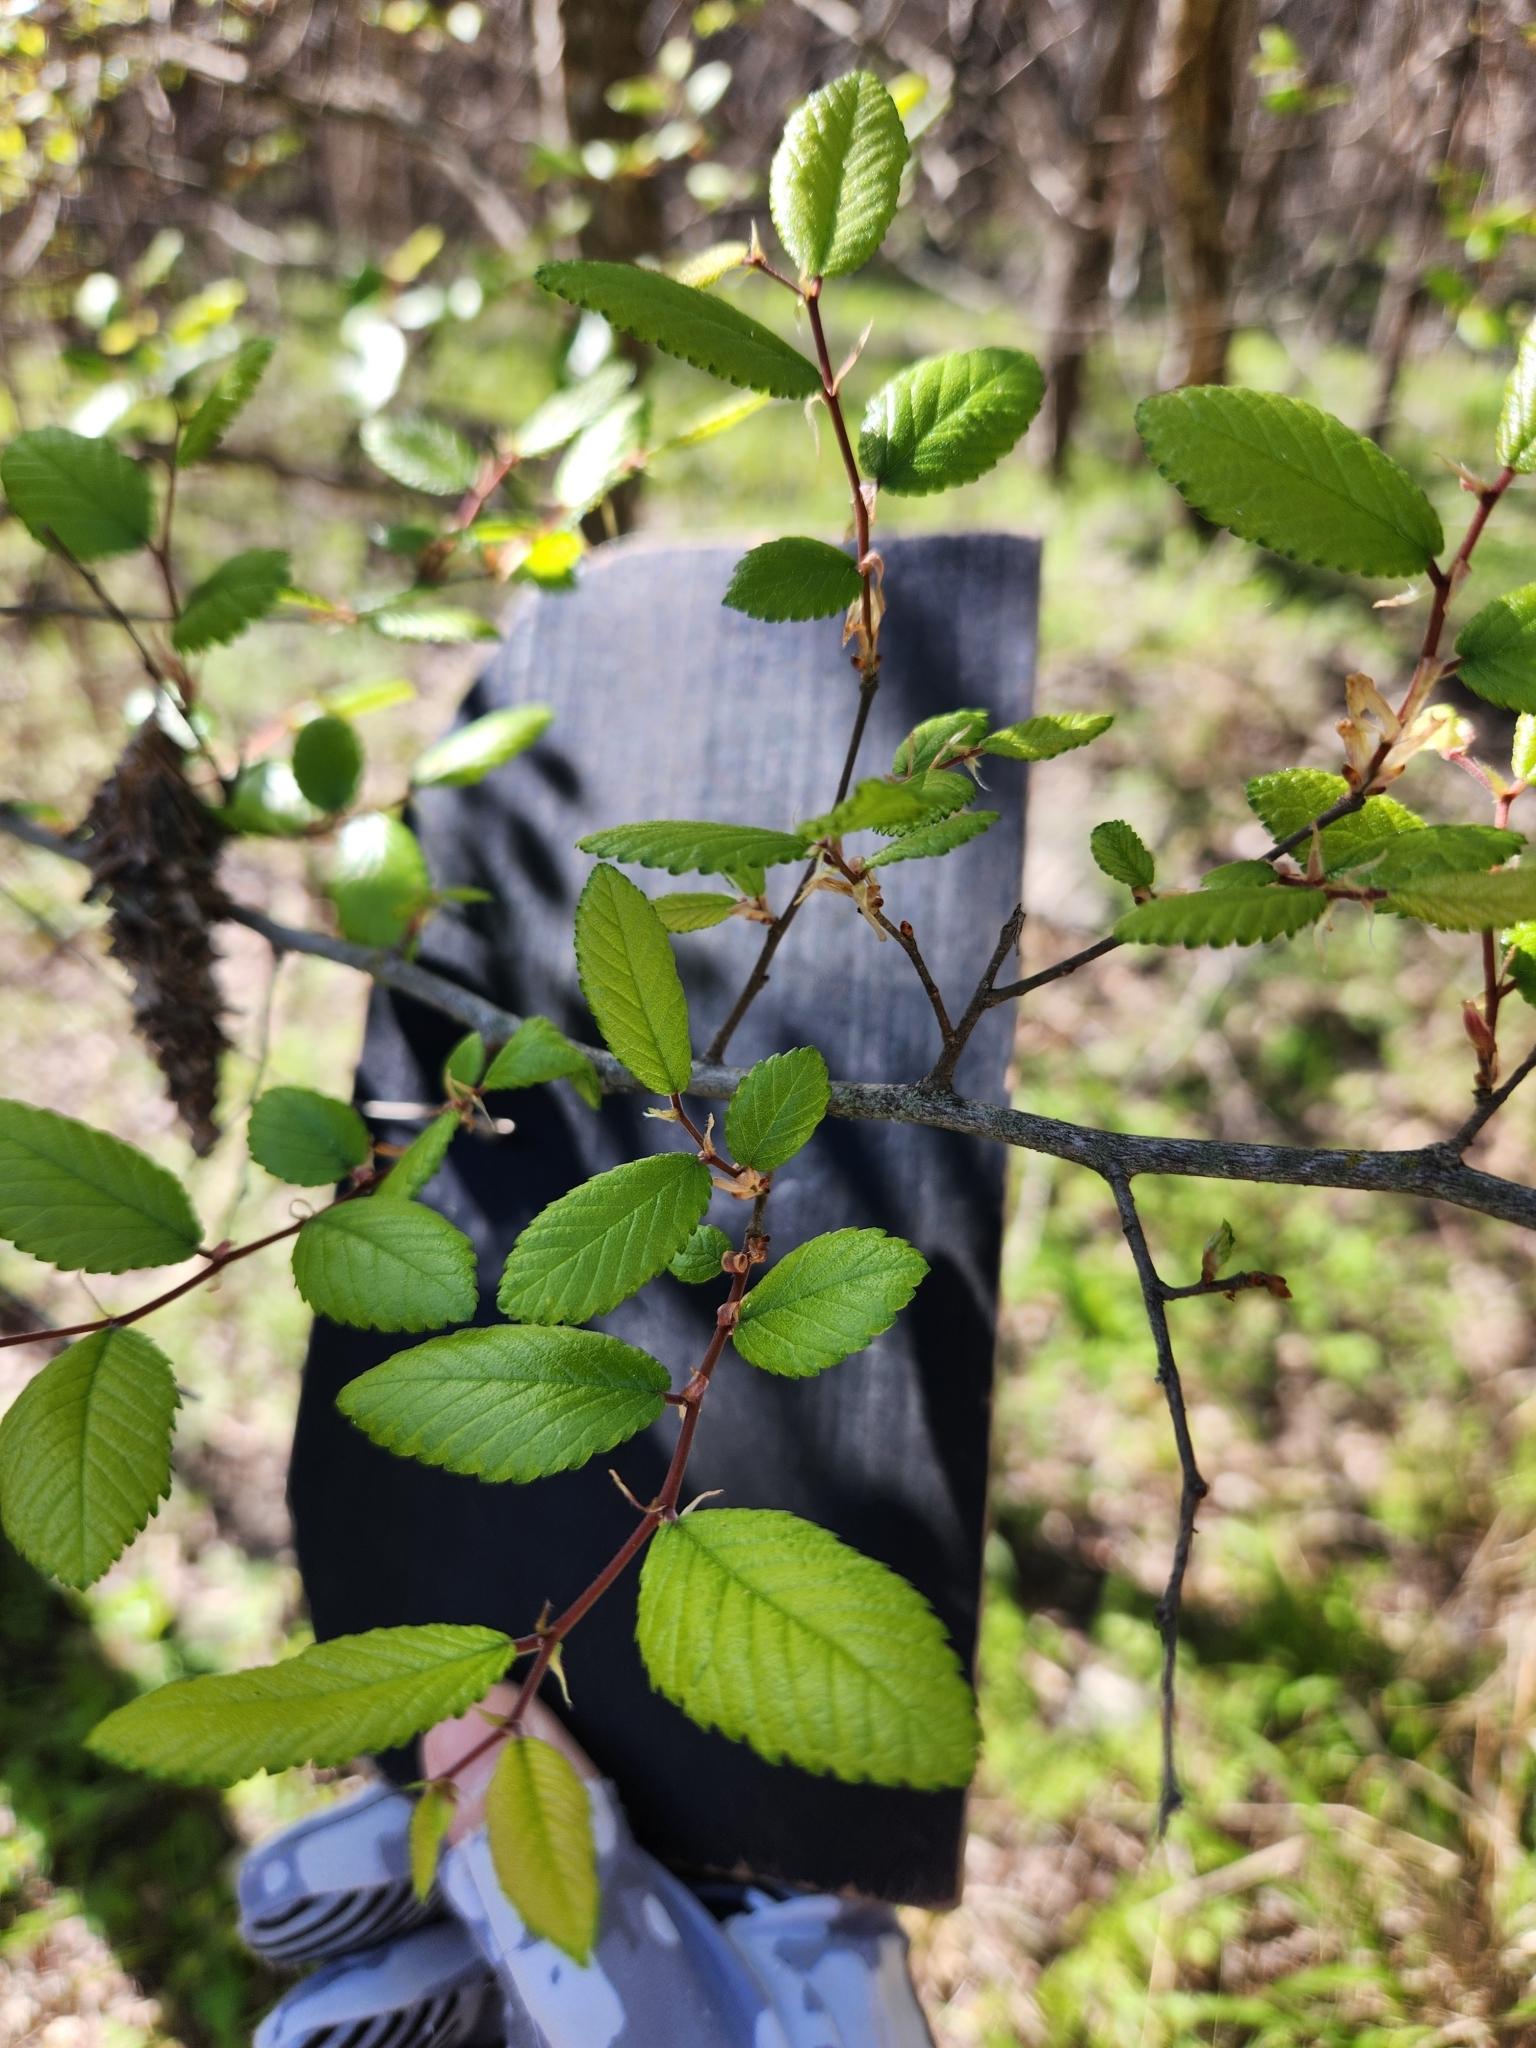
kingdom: Plantae
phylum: Tracheophyta
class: Magnoliopsida
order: Rosales
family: Ulmaceae
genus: Ulmus
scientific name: Ulmus crassifolia
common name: Basket elm
